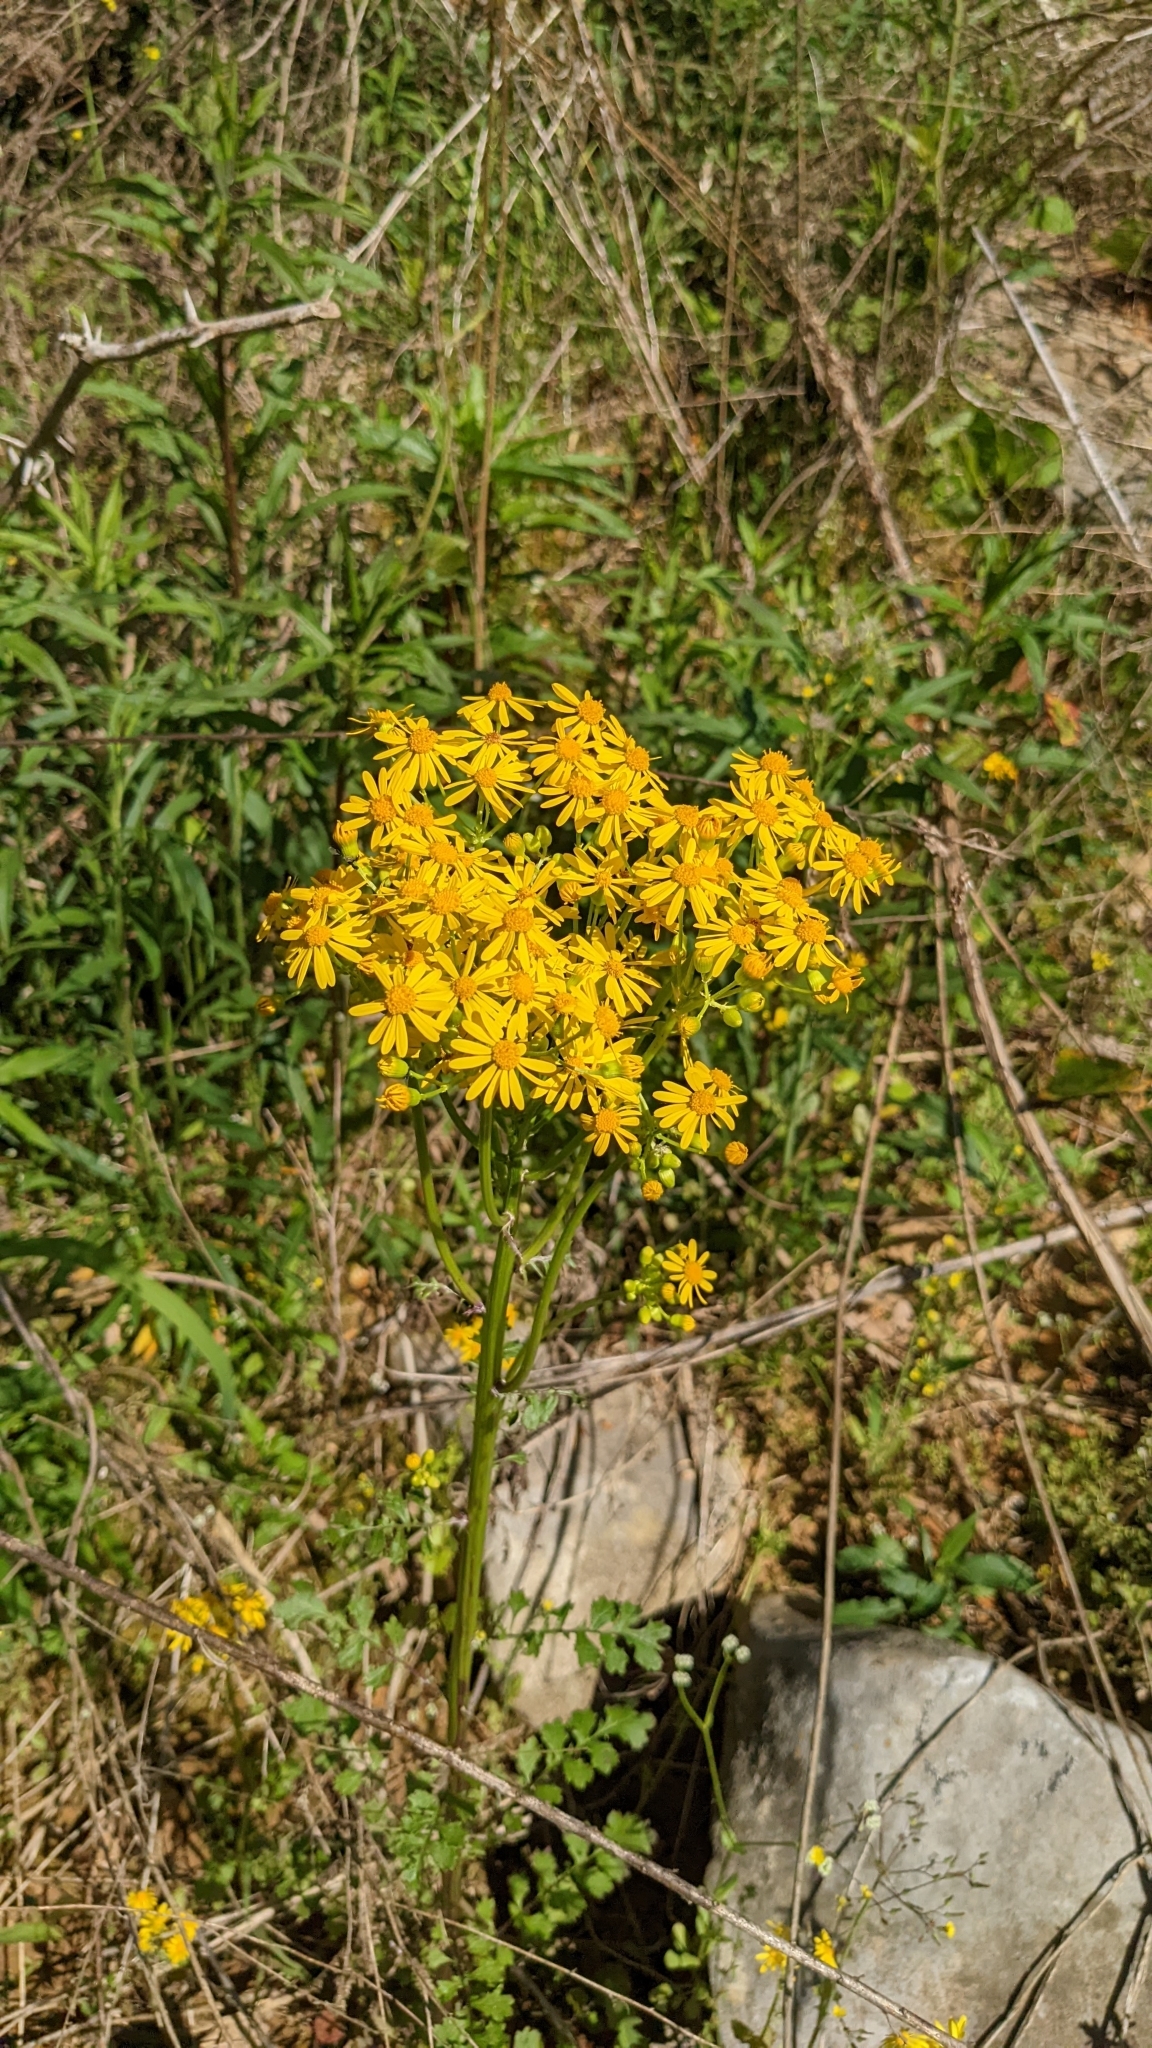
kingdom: Plantae
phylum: Tracheophyta
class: Magnoliopsida
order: Asterales
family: Asteraceae
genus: Packera
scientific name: Packera glabella
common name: Butterweed
